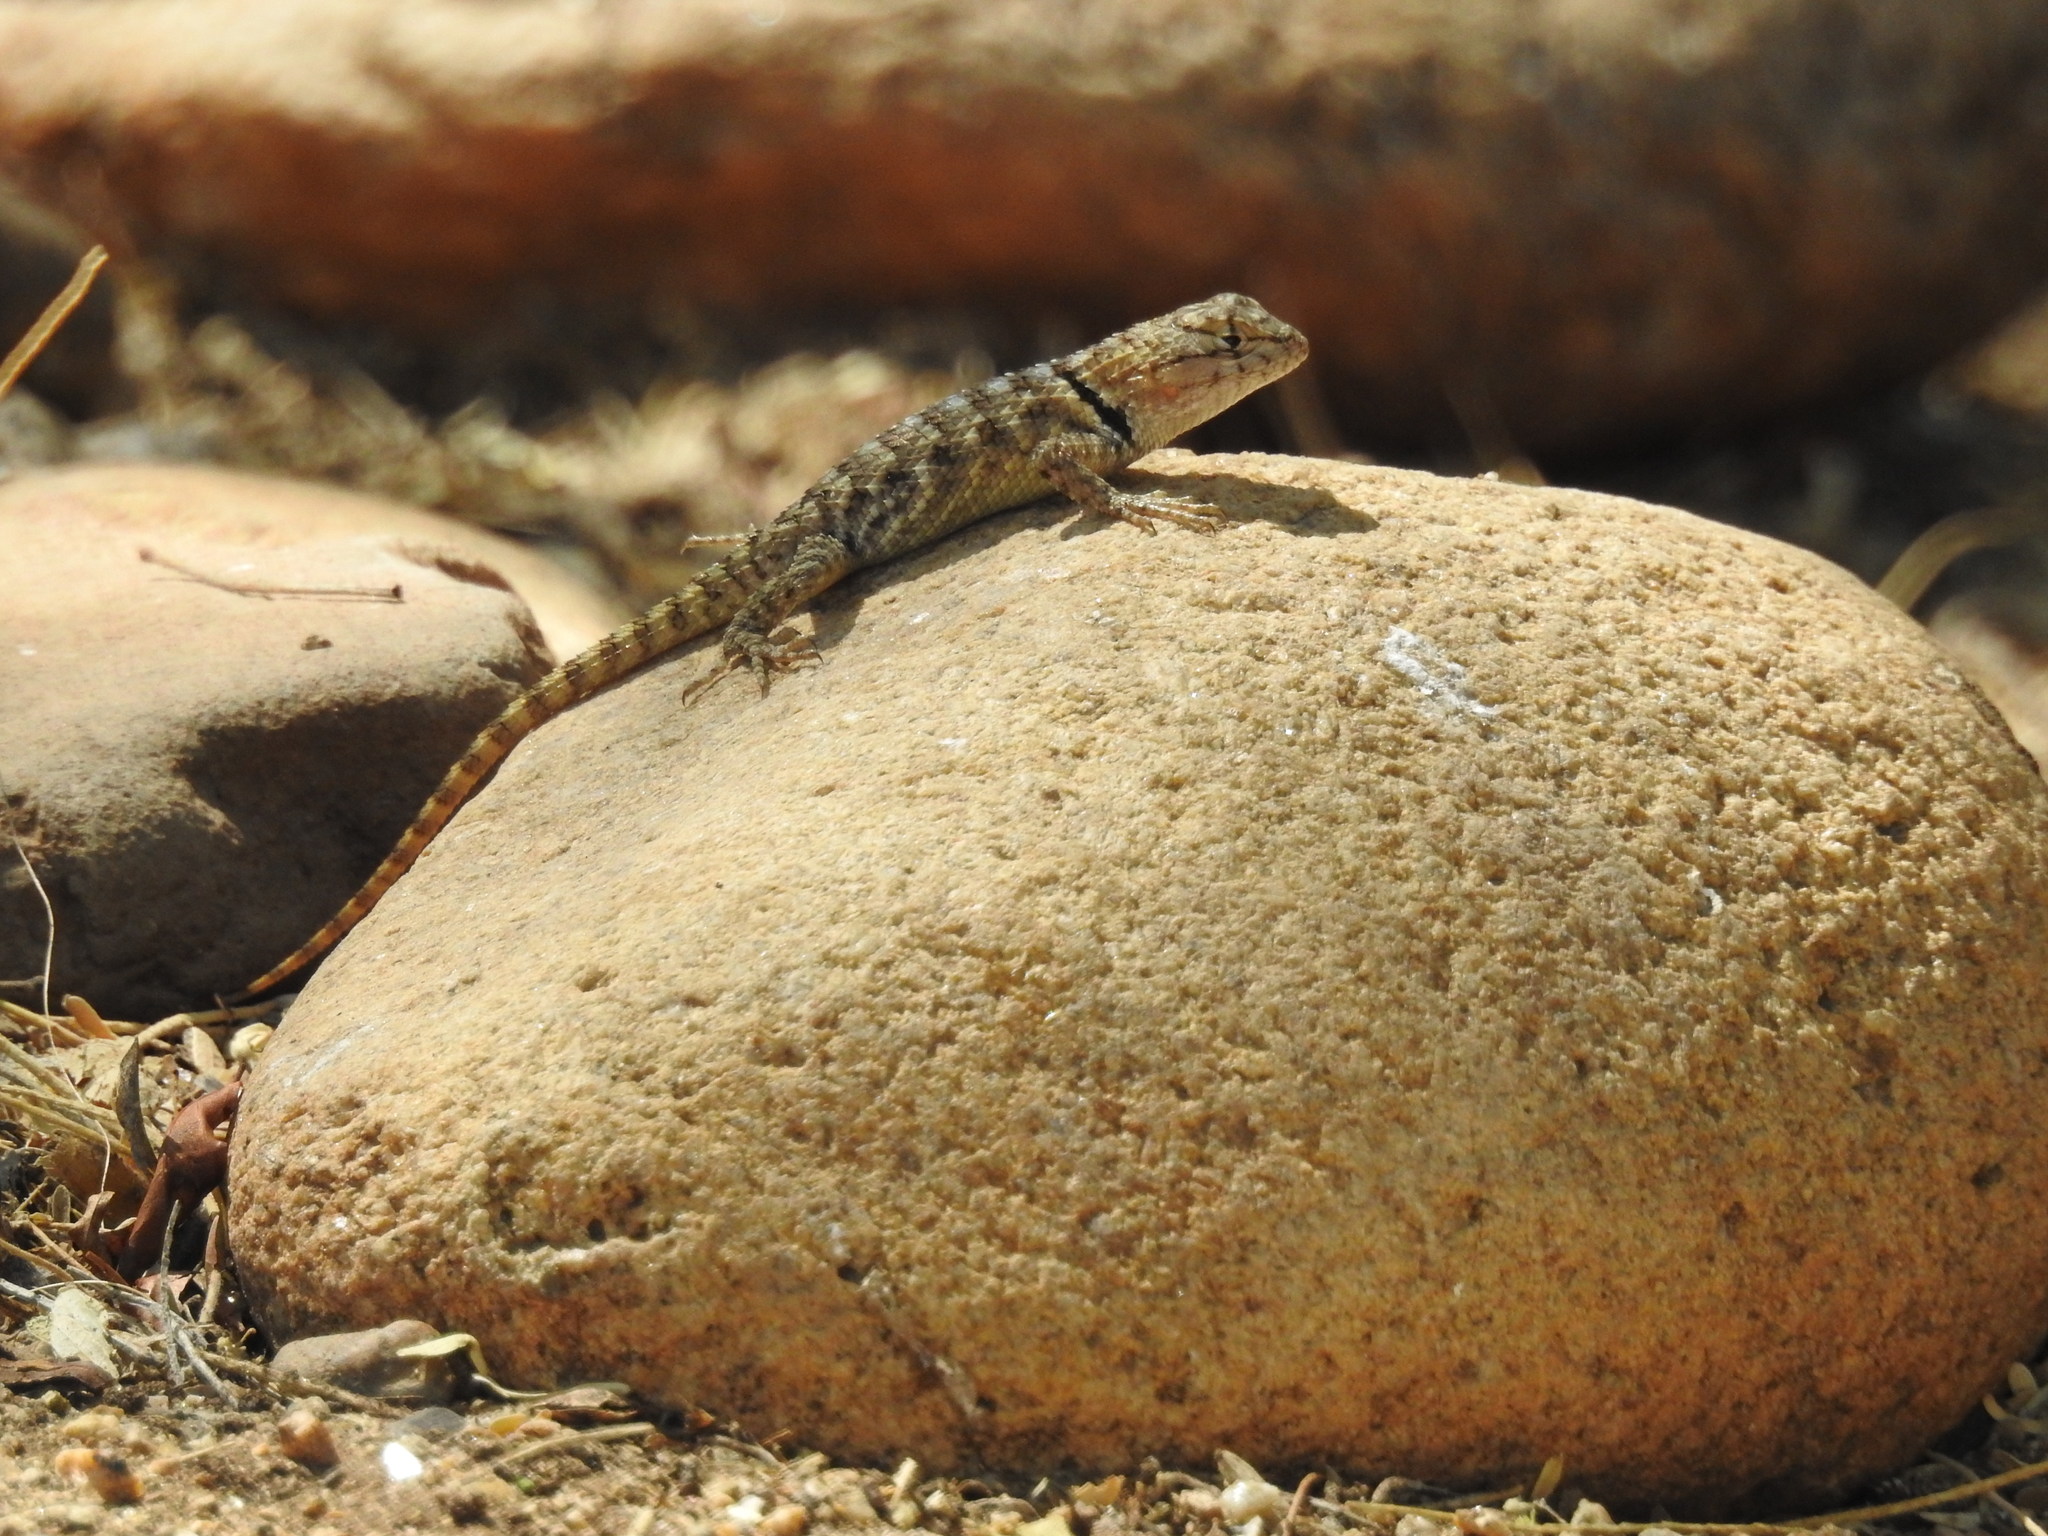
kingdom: Animalia
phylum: Chordata
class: Squamata
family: Phrynosomatidae
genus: Sceloporus
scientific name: Sceloporus magister
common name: Desert spiny lizard
